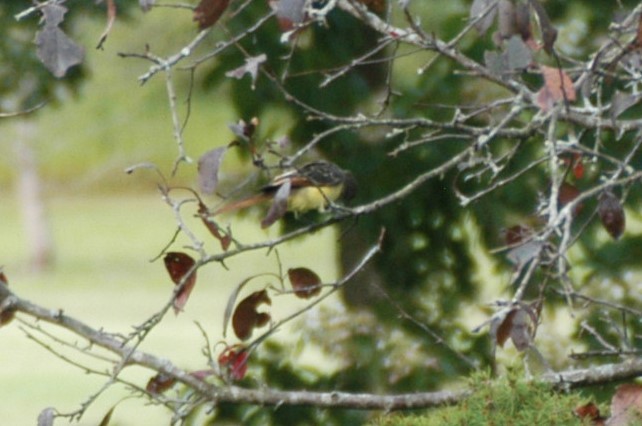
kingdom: Animalia
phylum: Chordata
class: Aves
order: Passeriformes
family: Tyrannidae
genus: Myiarchus
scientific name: Myiarchus crinitus
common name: Great crested flycatcher
